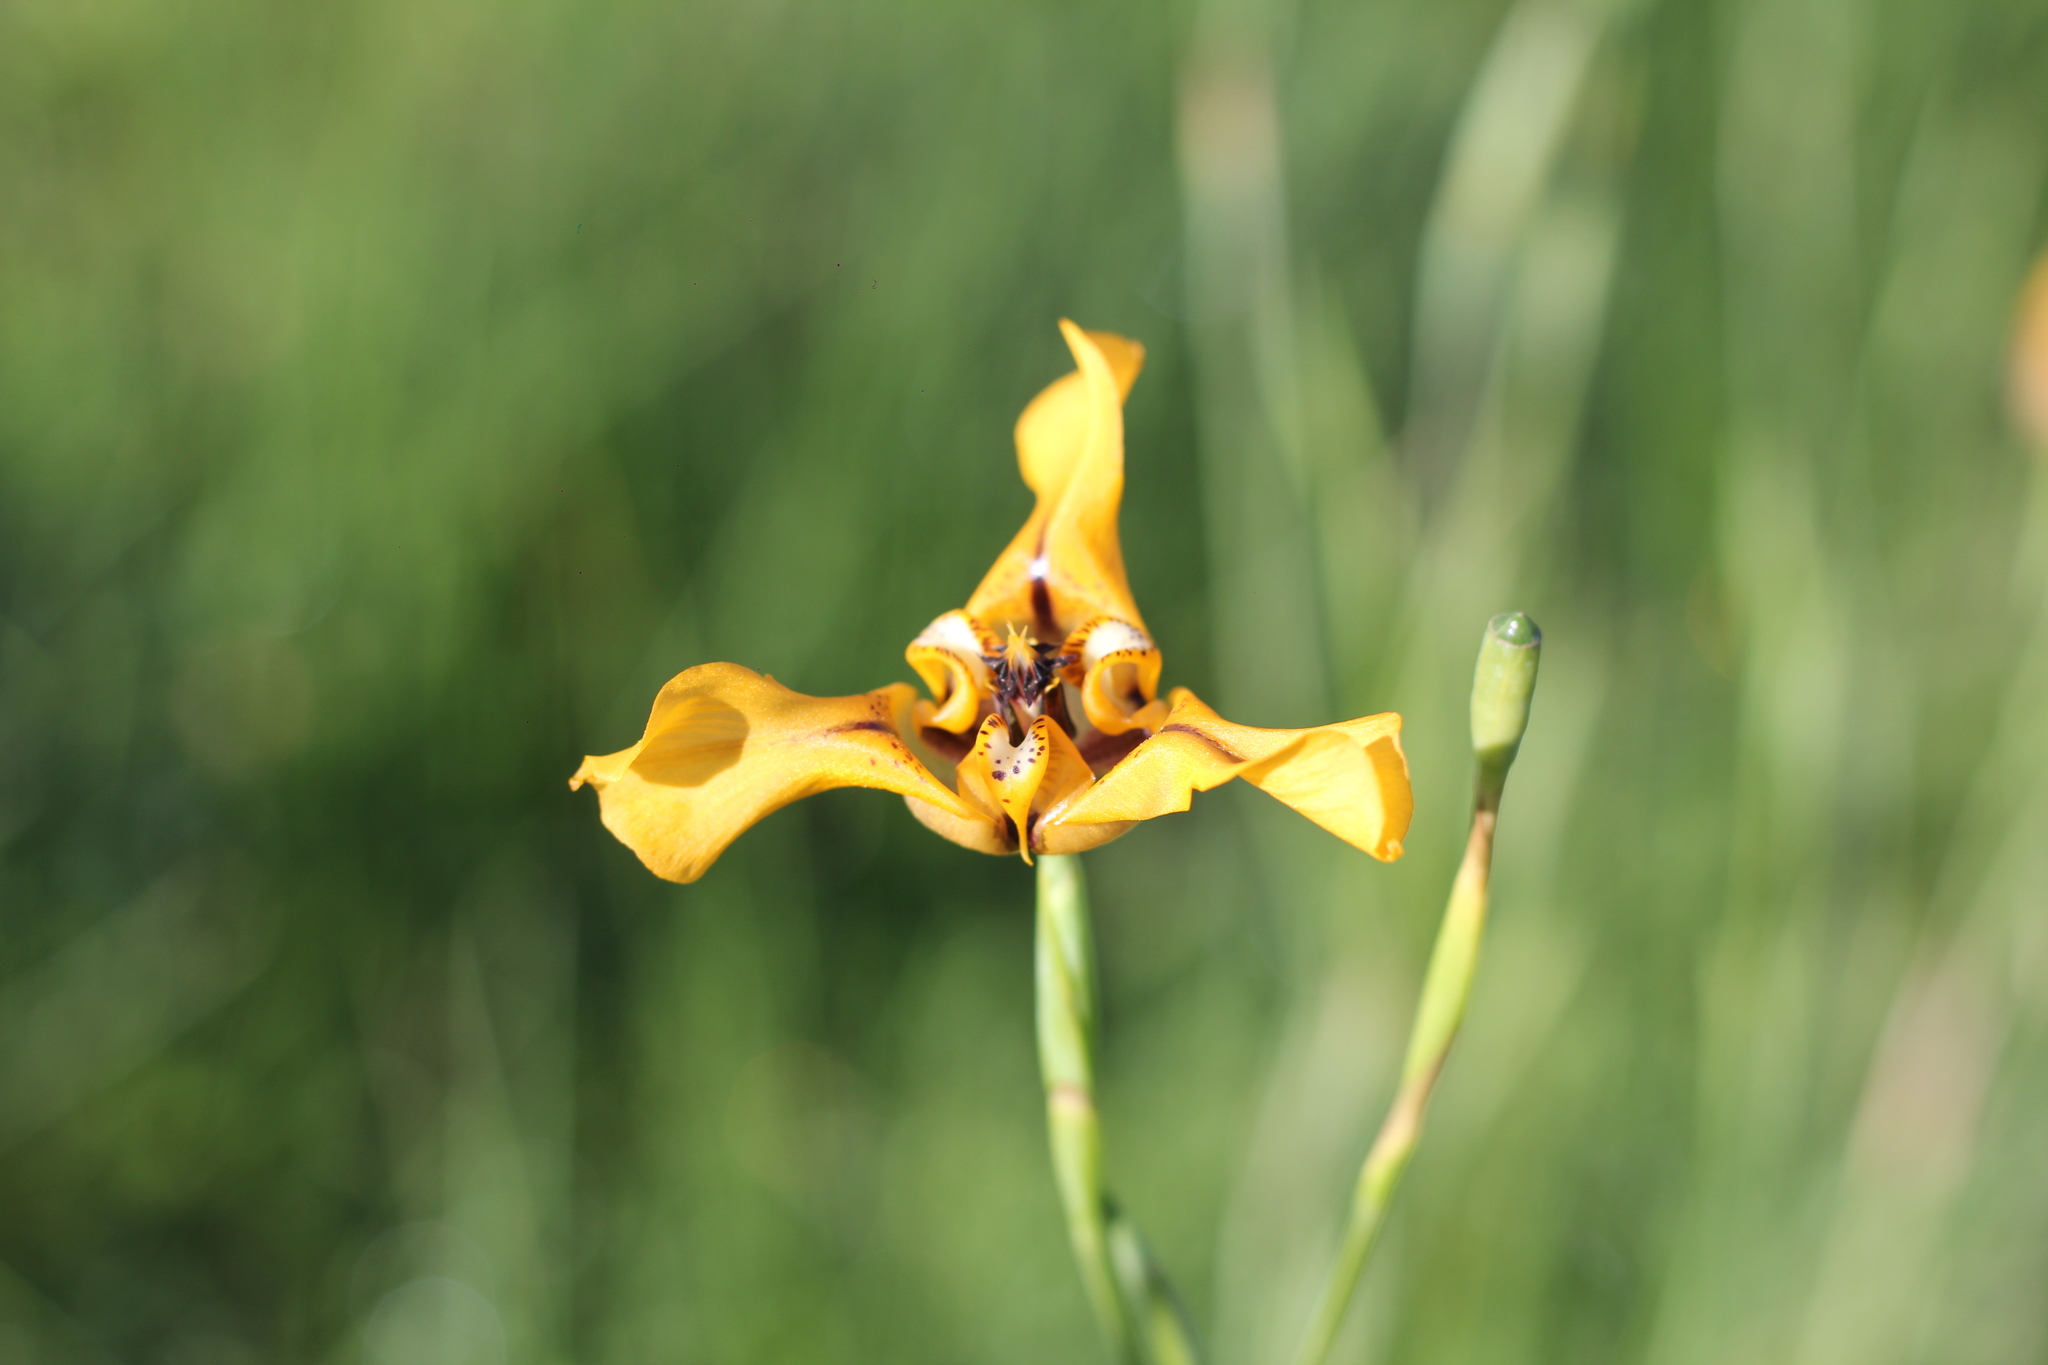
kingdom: Plantae
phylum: Tracheophyta
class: Liliopsida
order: Asparagales
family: Iridaceae
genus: Cypella
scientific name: Cypella herbertii
